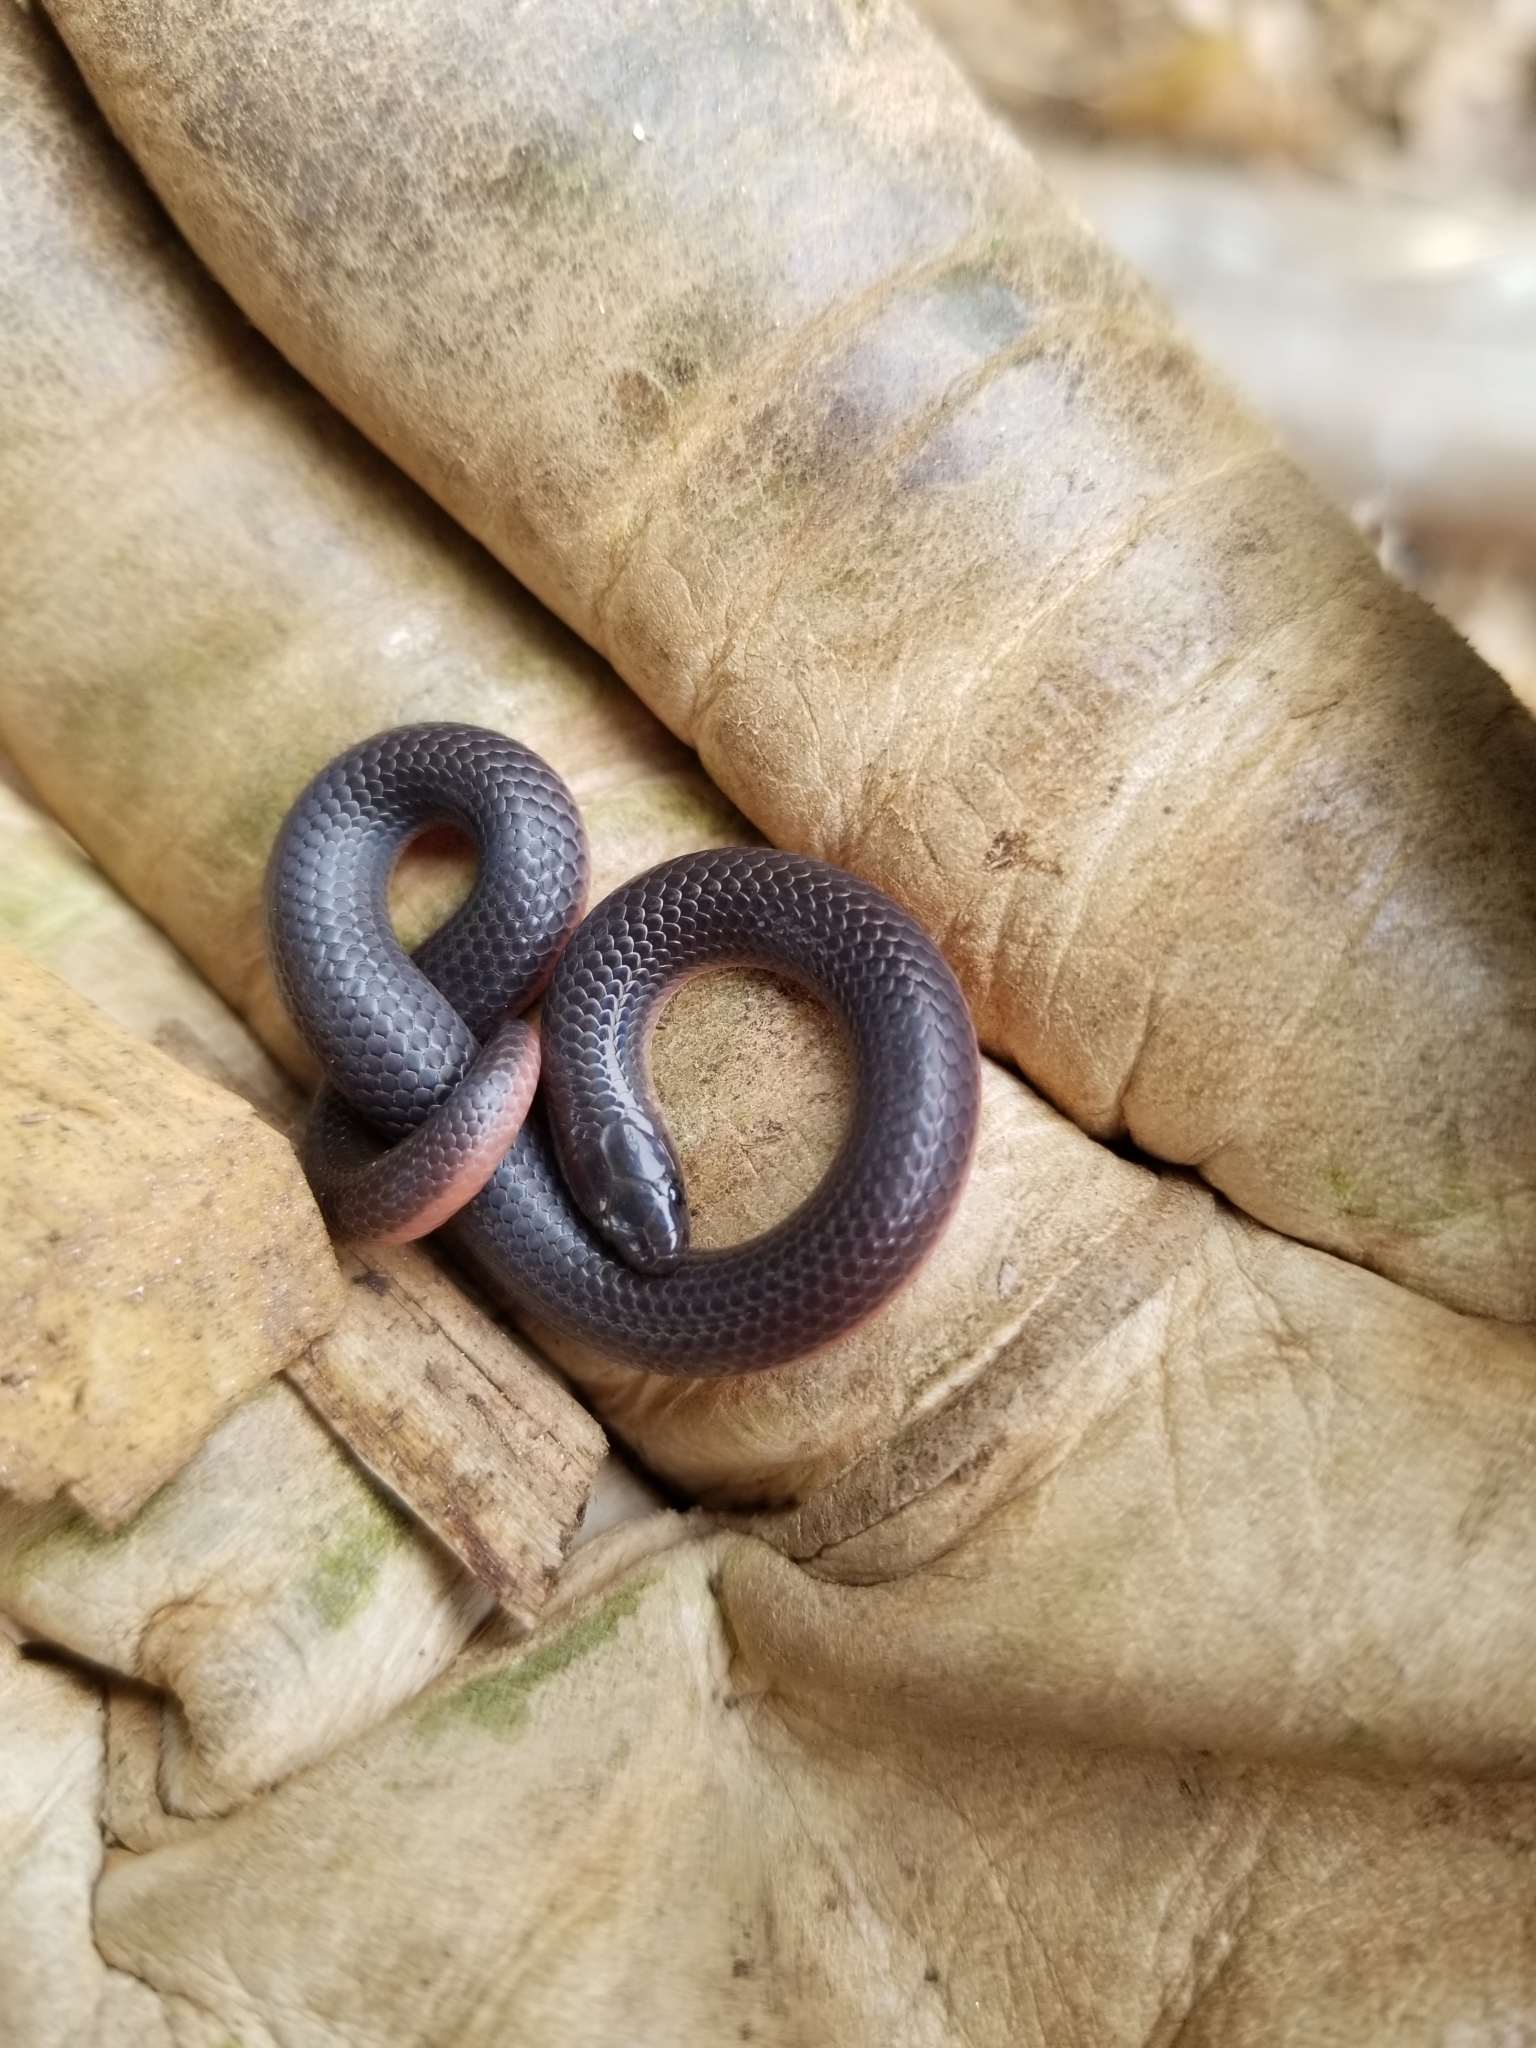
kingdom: Animalia
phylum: Chordata
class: Squamata
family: Colubridae
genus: Carphophis
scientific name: Carphophis amoenus
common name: Eastern worm snake
